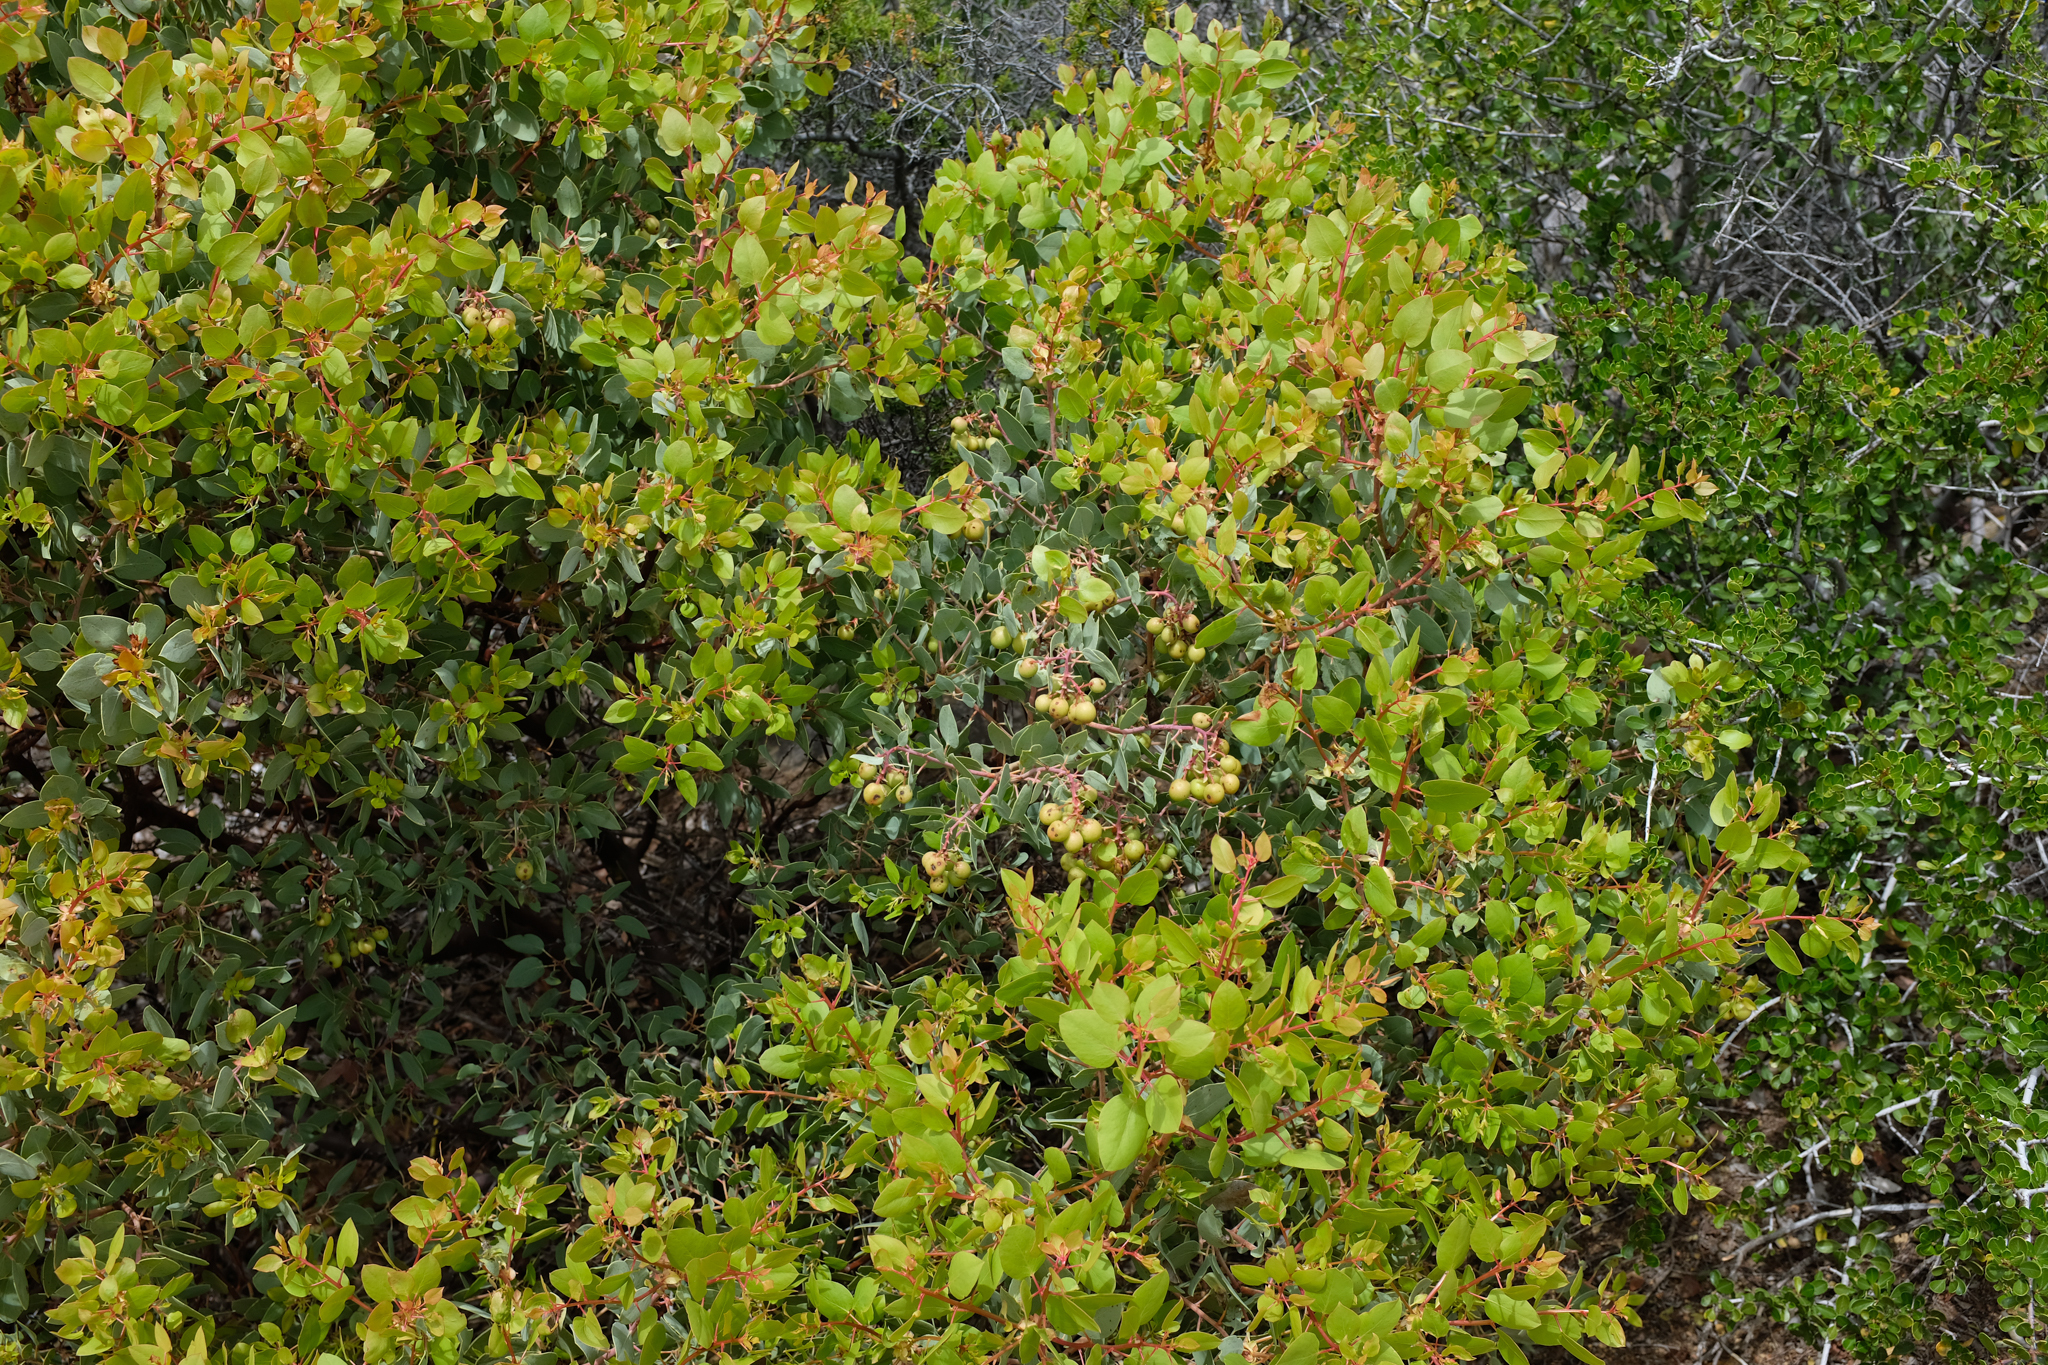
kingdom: Plantae
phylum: Tracheophyta
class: Magnoliopsida
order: Ericales
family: Ericaceae
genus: Arctostaphylos
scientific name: Arctostaphylos glauca
